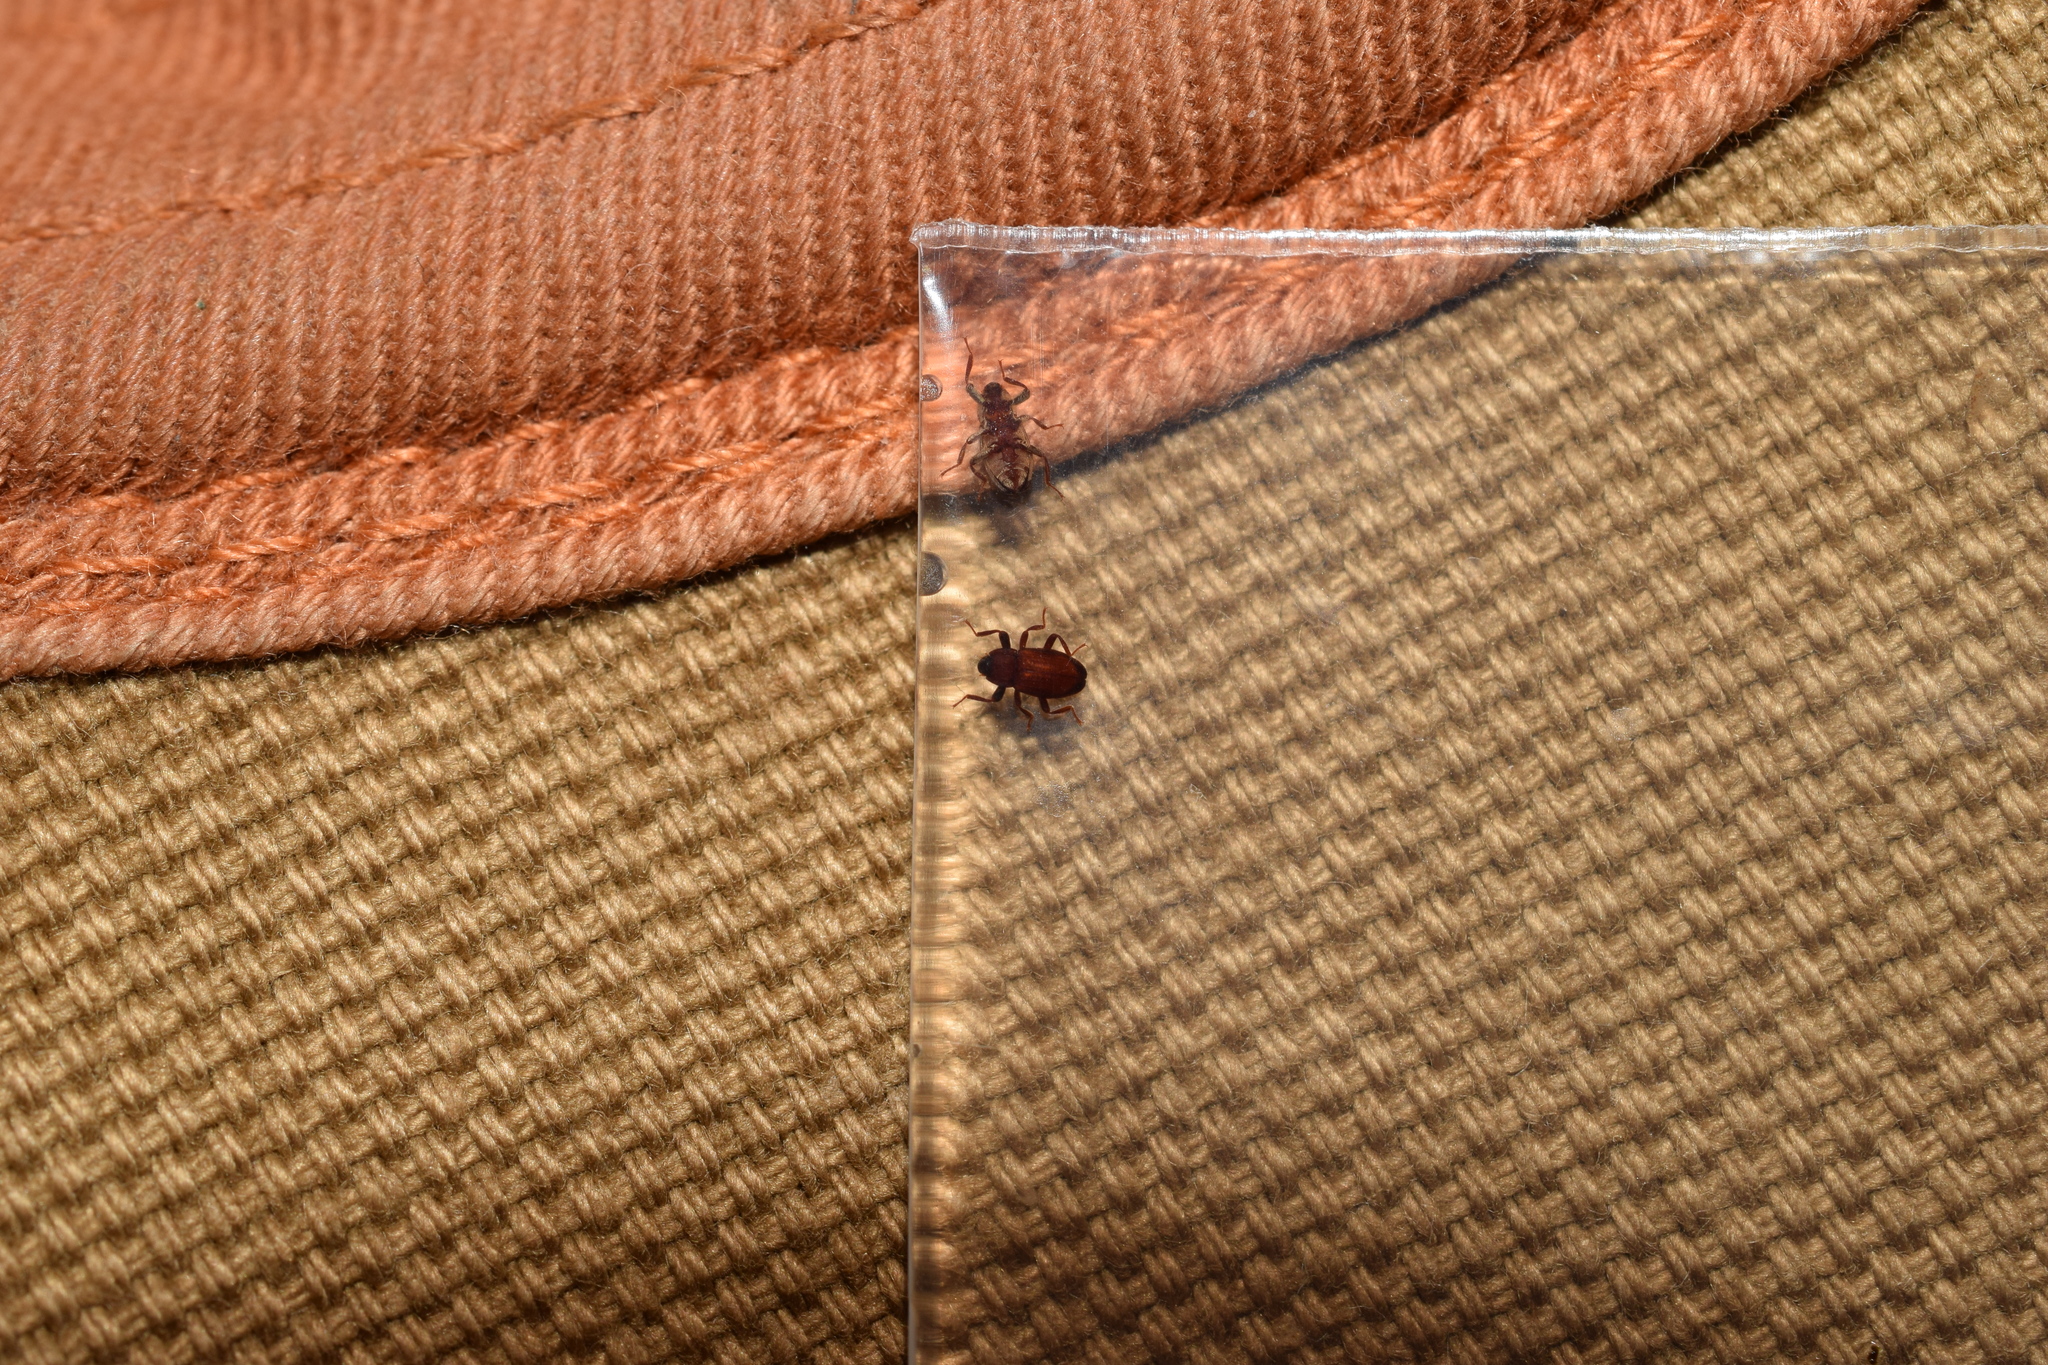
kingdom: Animalia
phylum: Arthropoda
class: Insecta
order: Coleoptera
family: Elmidae
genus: Paramacronychus
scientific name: Paramacronychus granulatus
